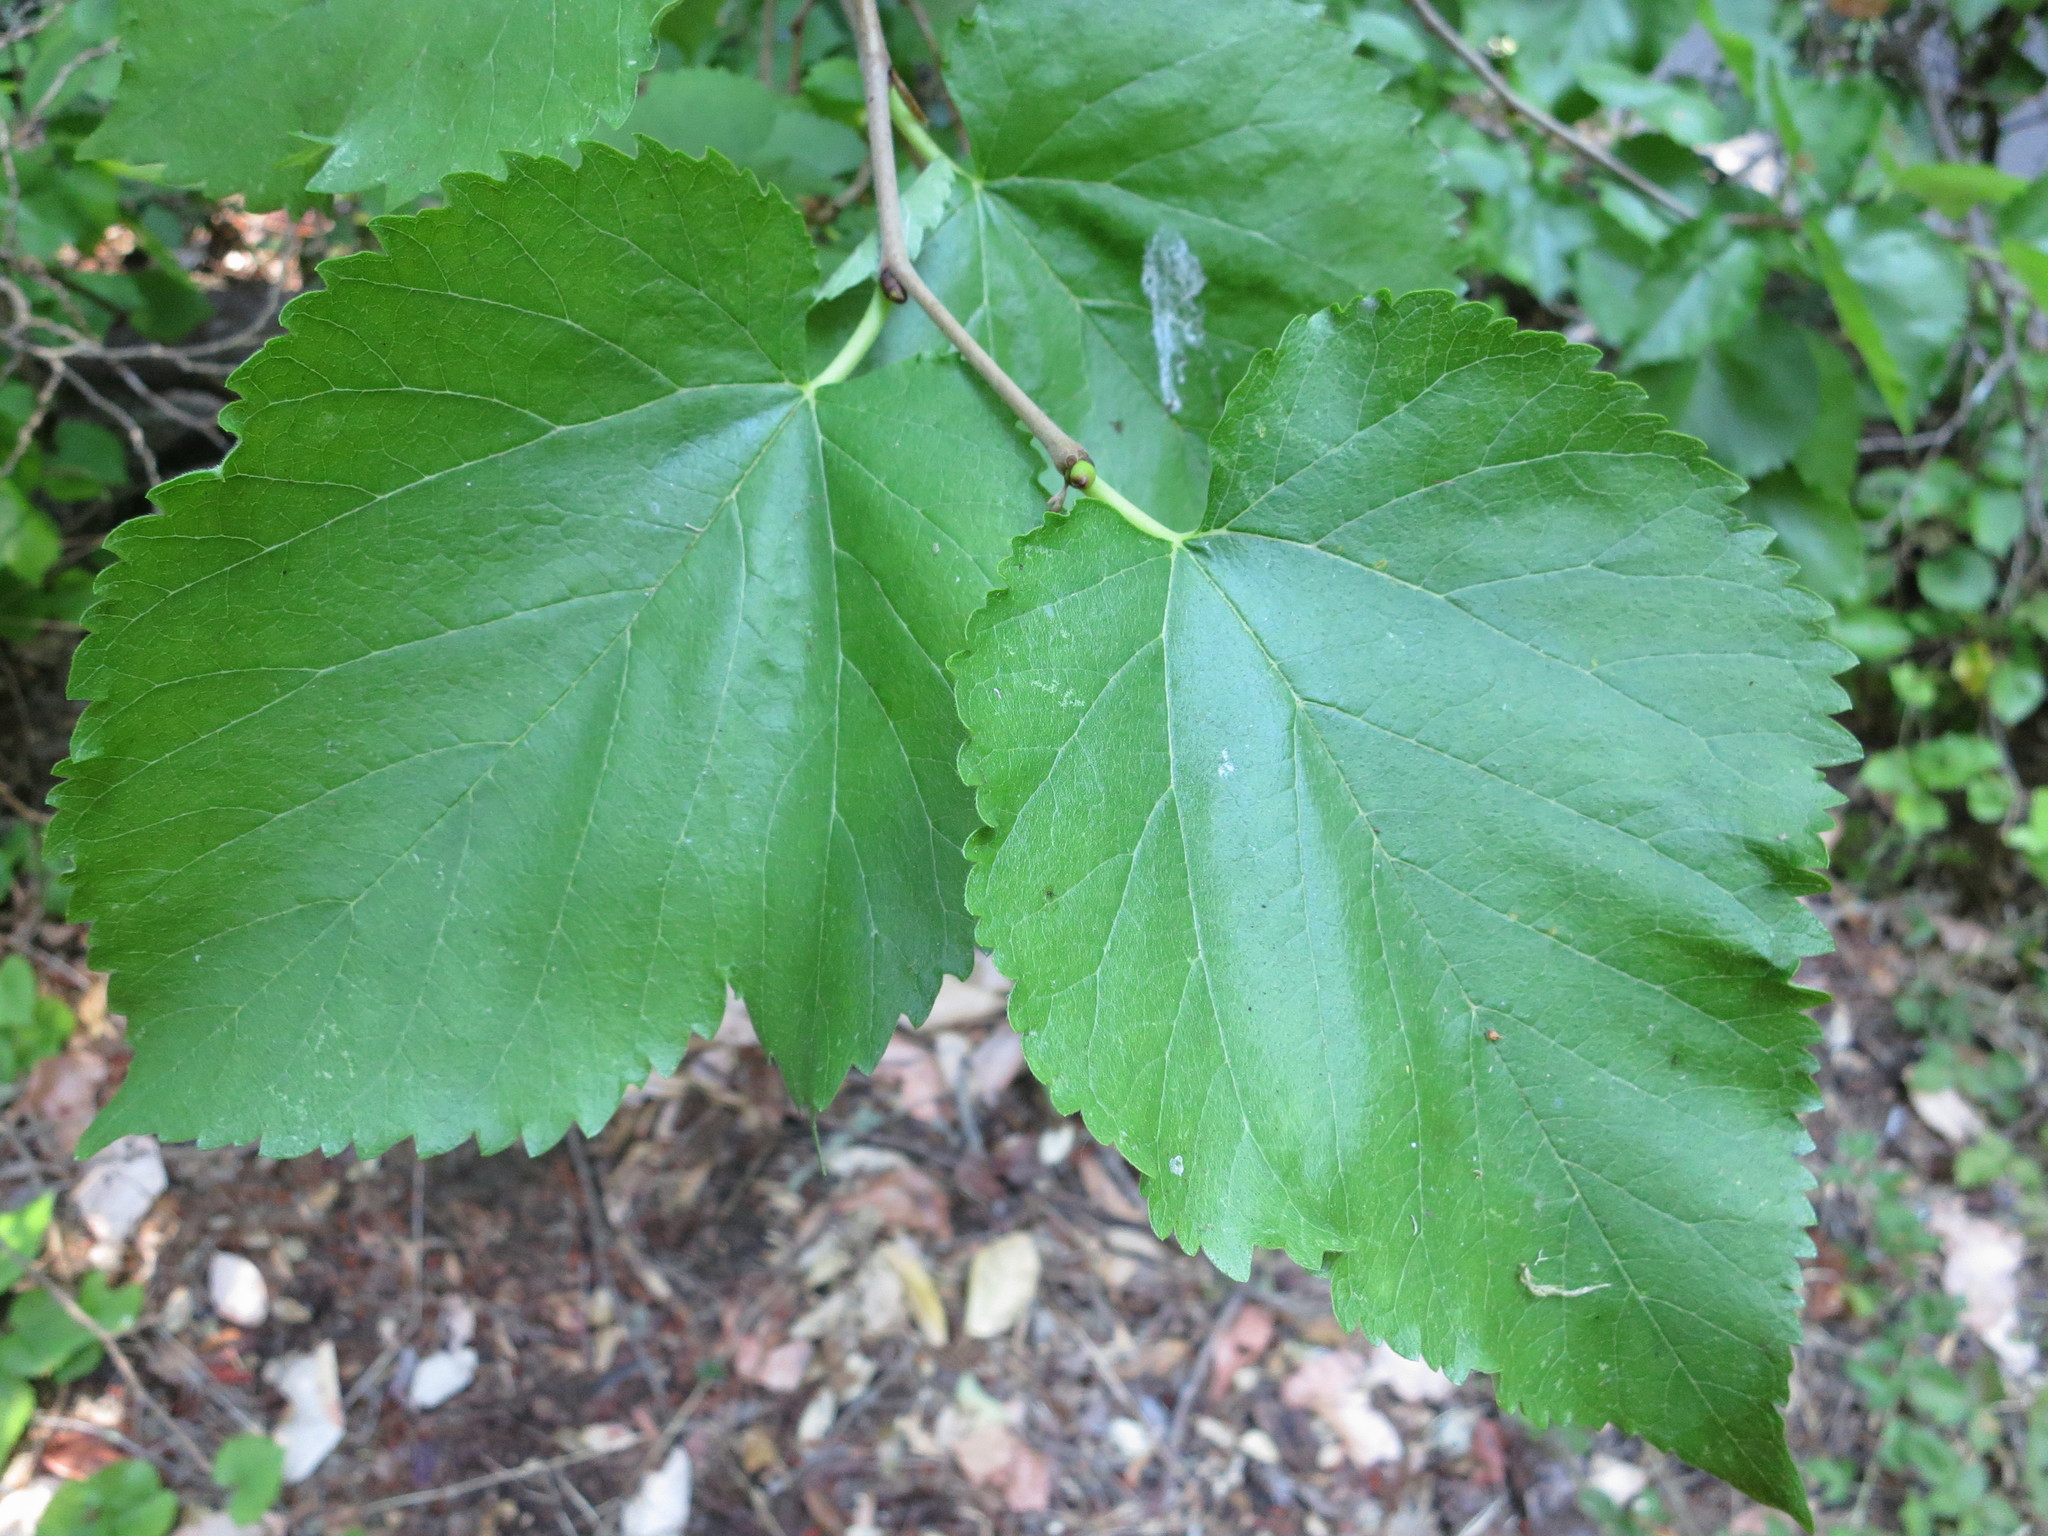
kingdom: Plantae
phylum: Tracheophyta
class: Magnoliopsida
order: Rosales
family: Moraceae
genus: Morus
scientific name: Morus nigra
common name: Black mulberry
